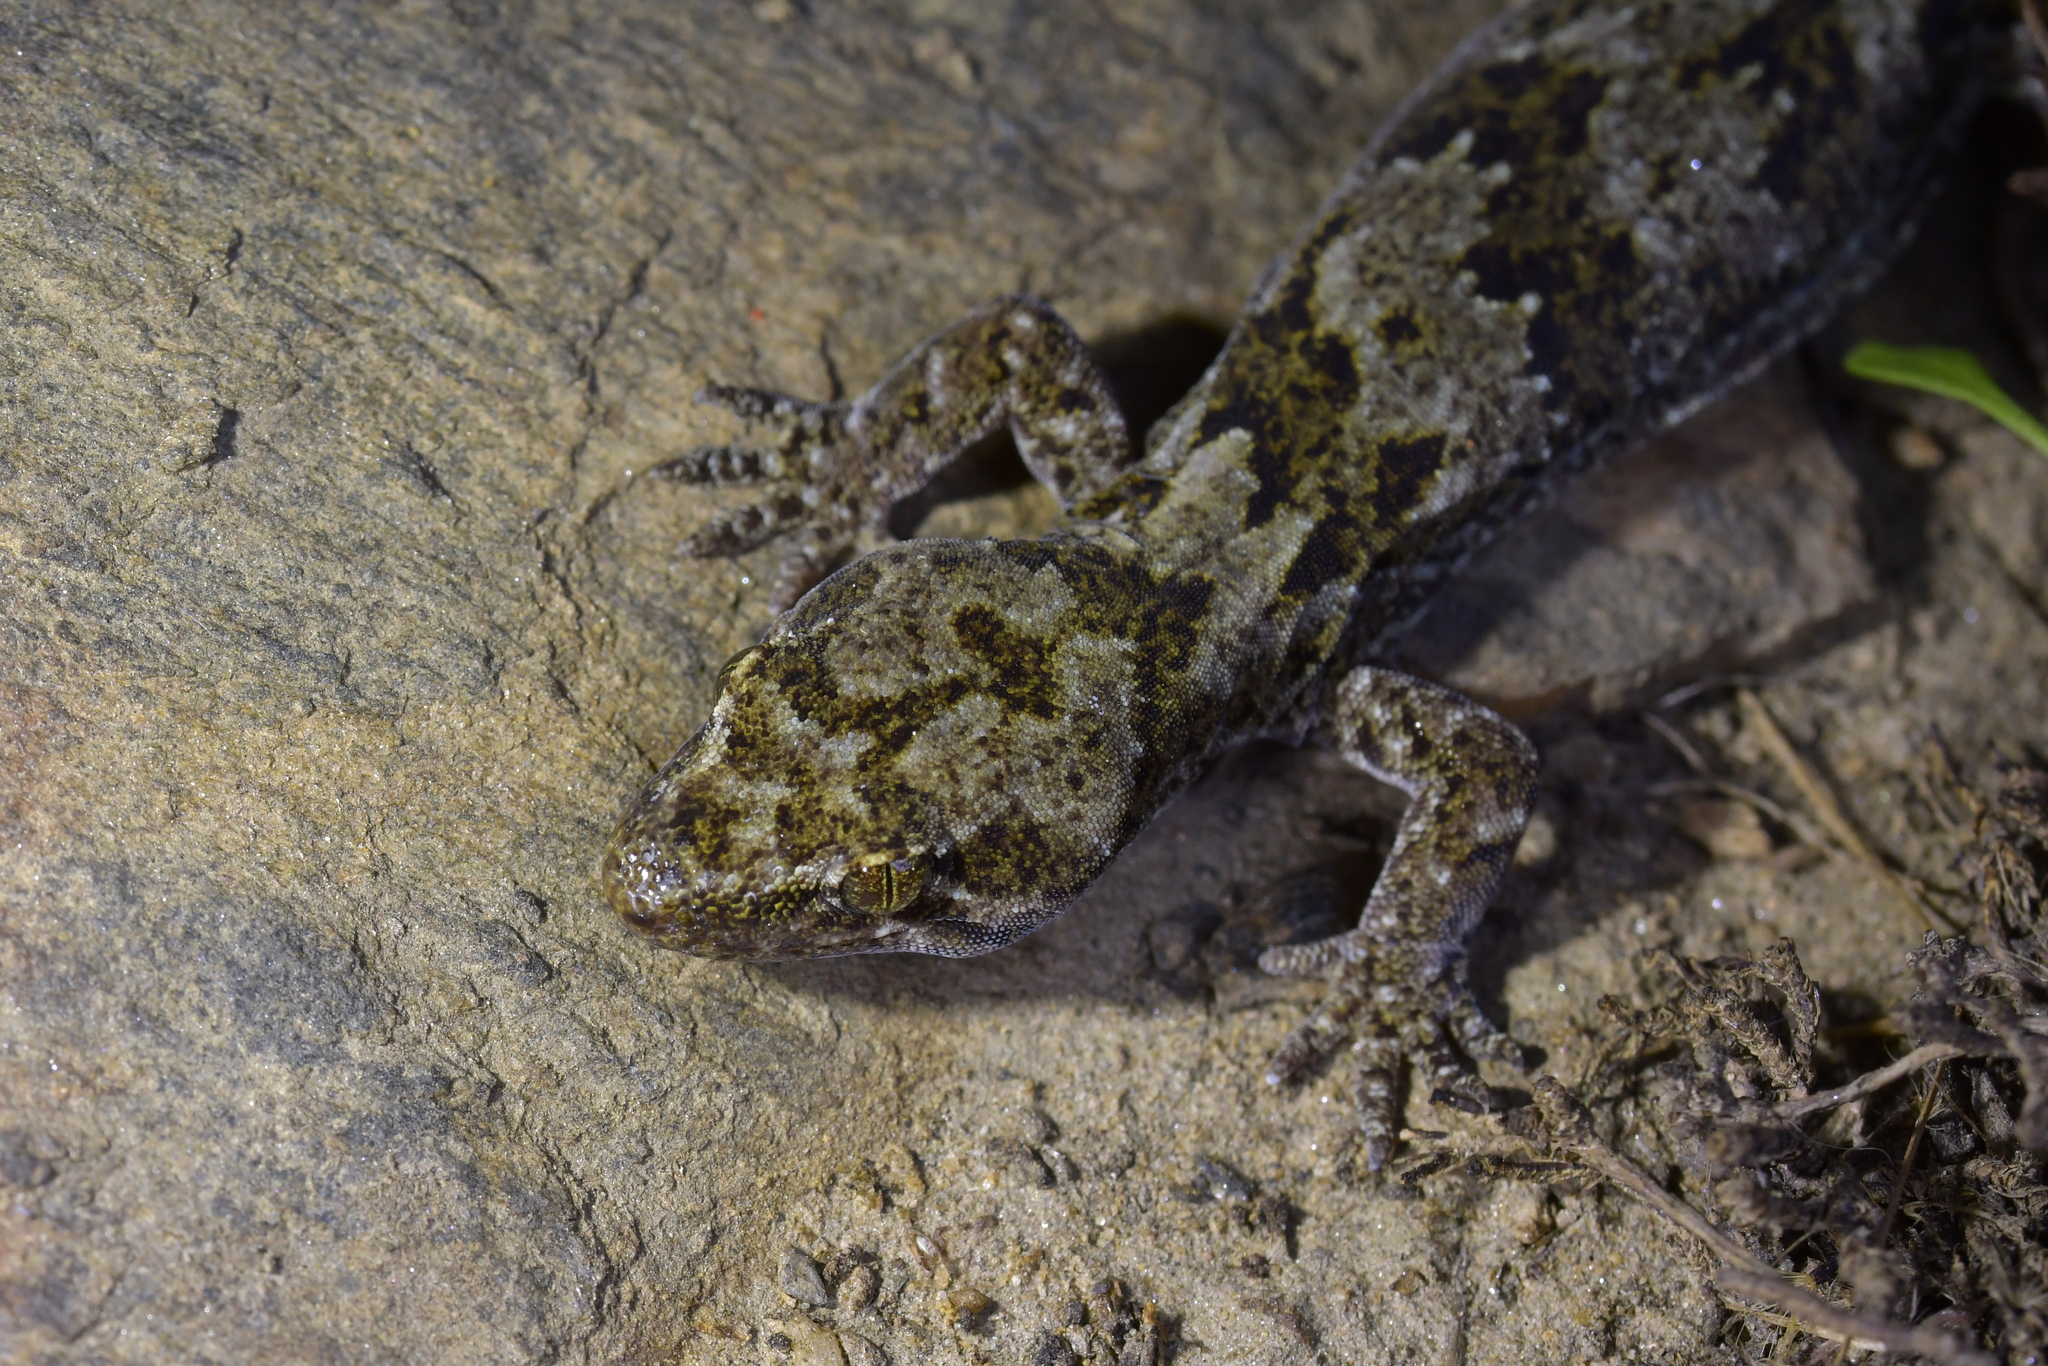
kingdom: Animalia
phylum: Chordata
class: Squamata
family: Diplodactylidae
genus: Woodworthia
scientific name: Woodworthia
